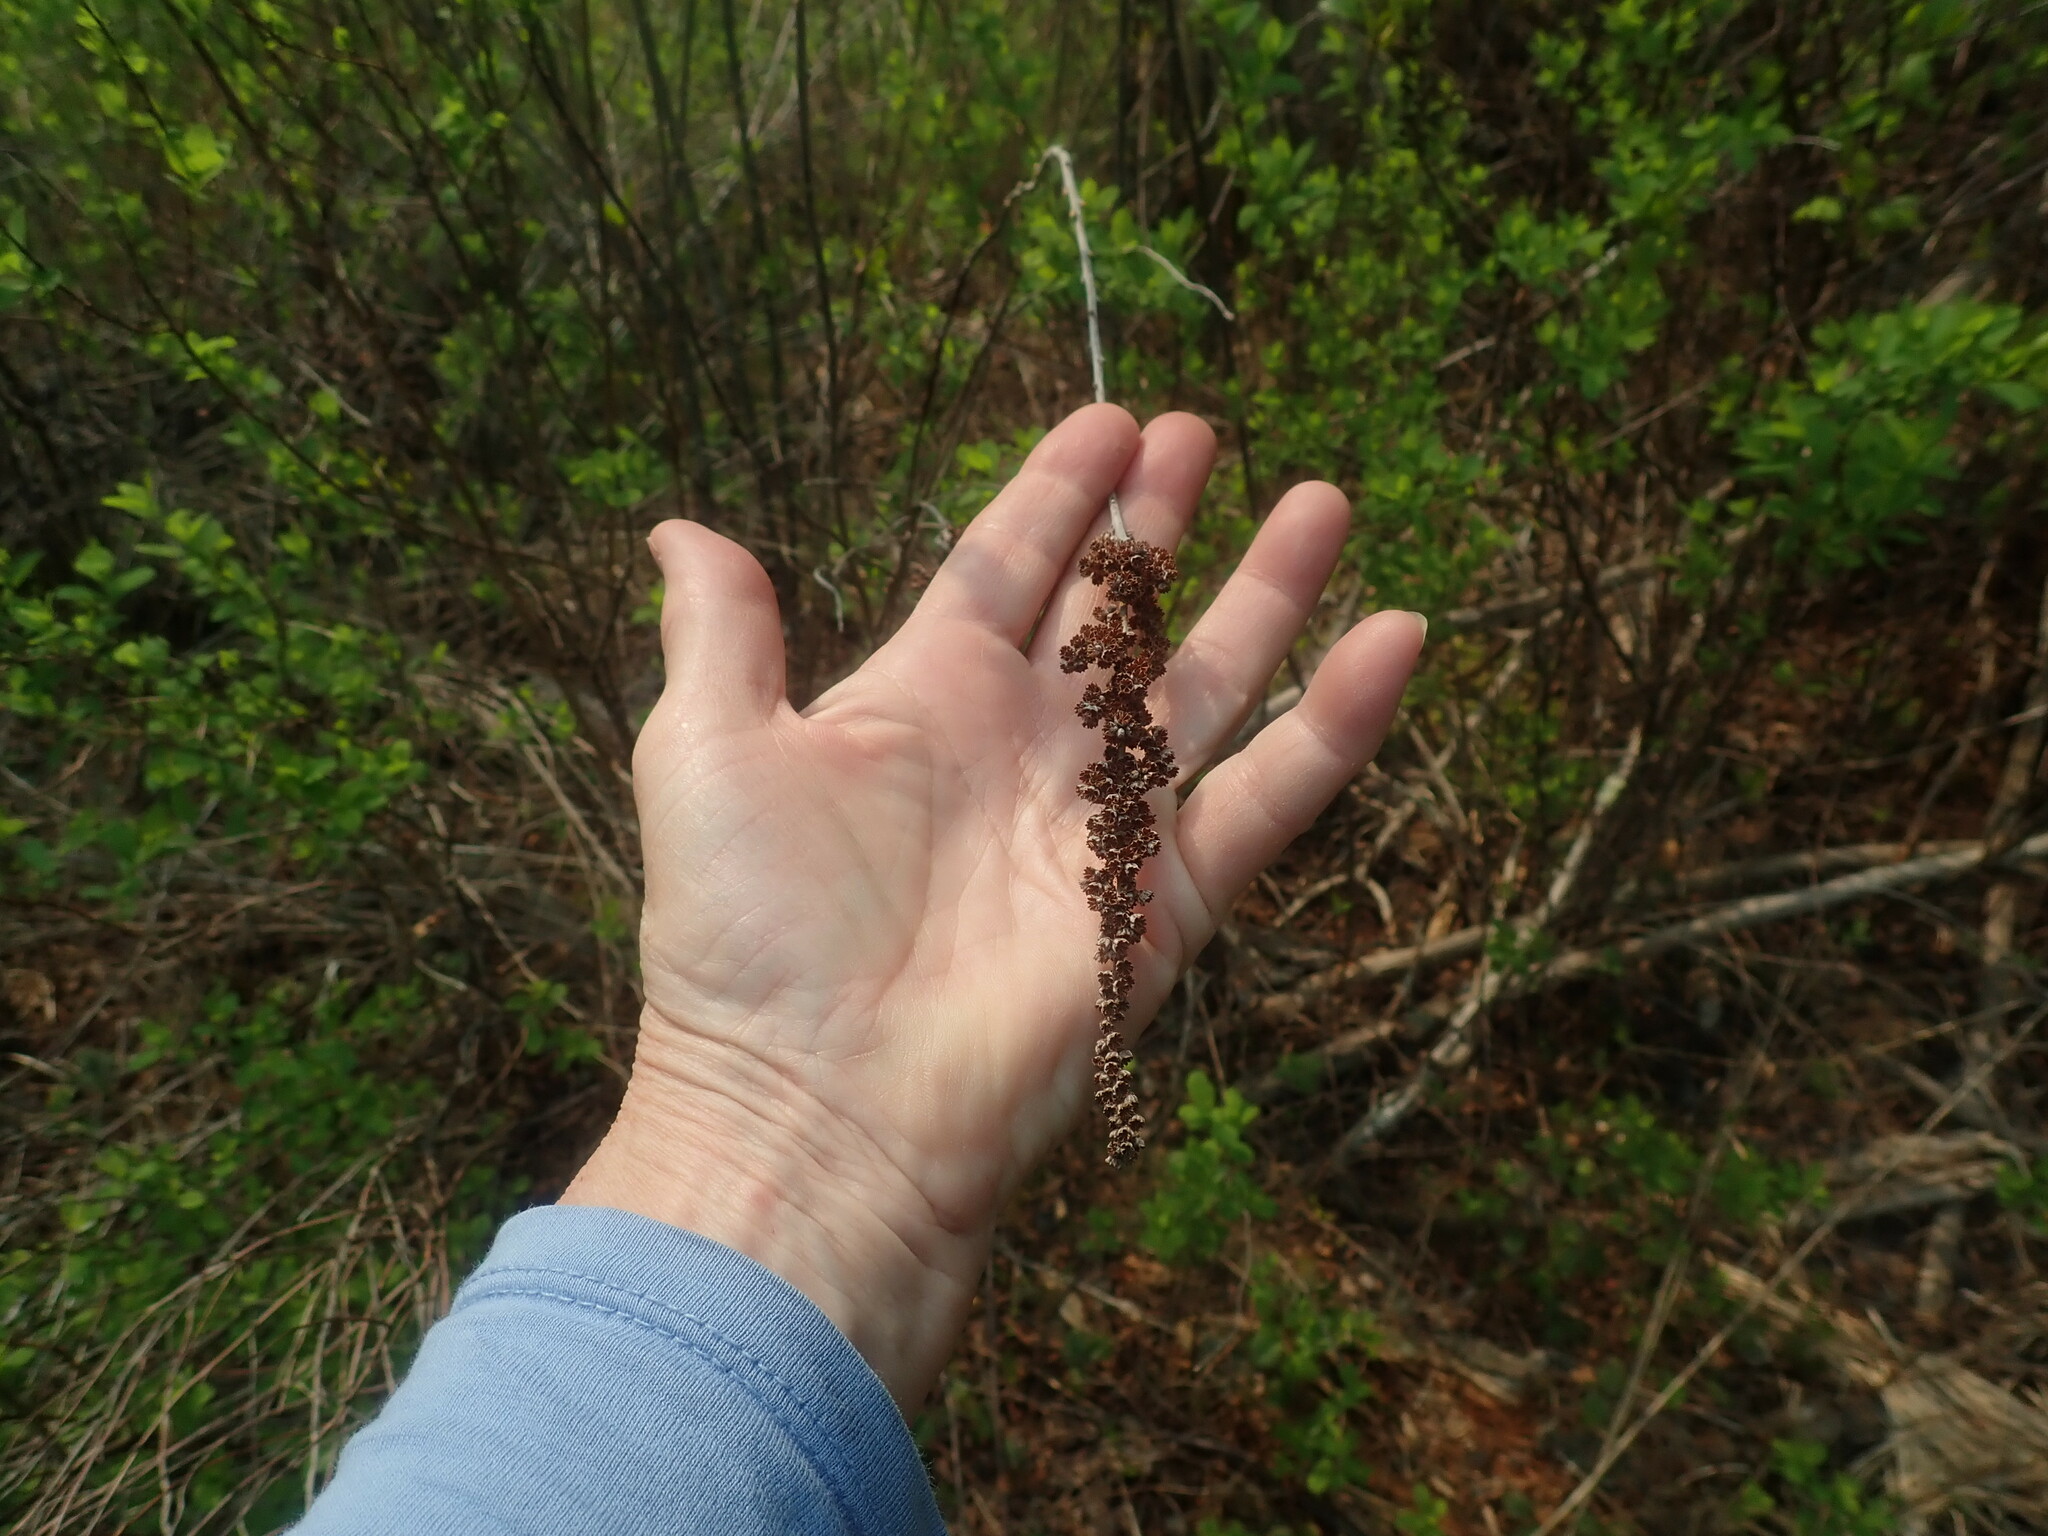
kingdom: Plantae
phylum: Tracheophyta
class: Magnoliopsida
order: Rosales
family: Rosaceae
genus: Spiraea
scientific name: Spiraea tomentosa
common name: Hardhack
